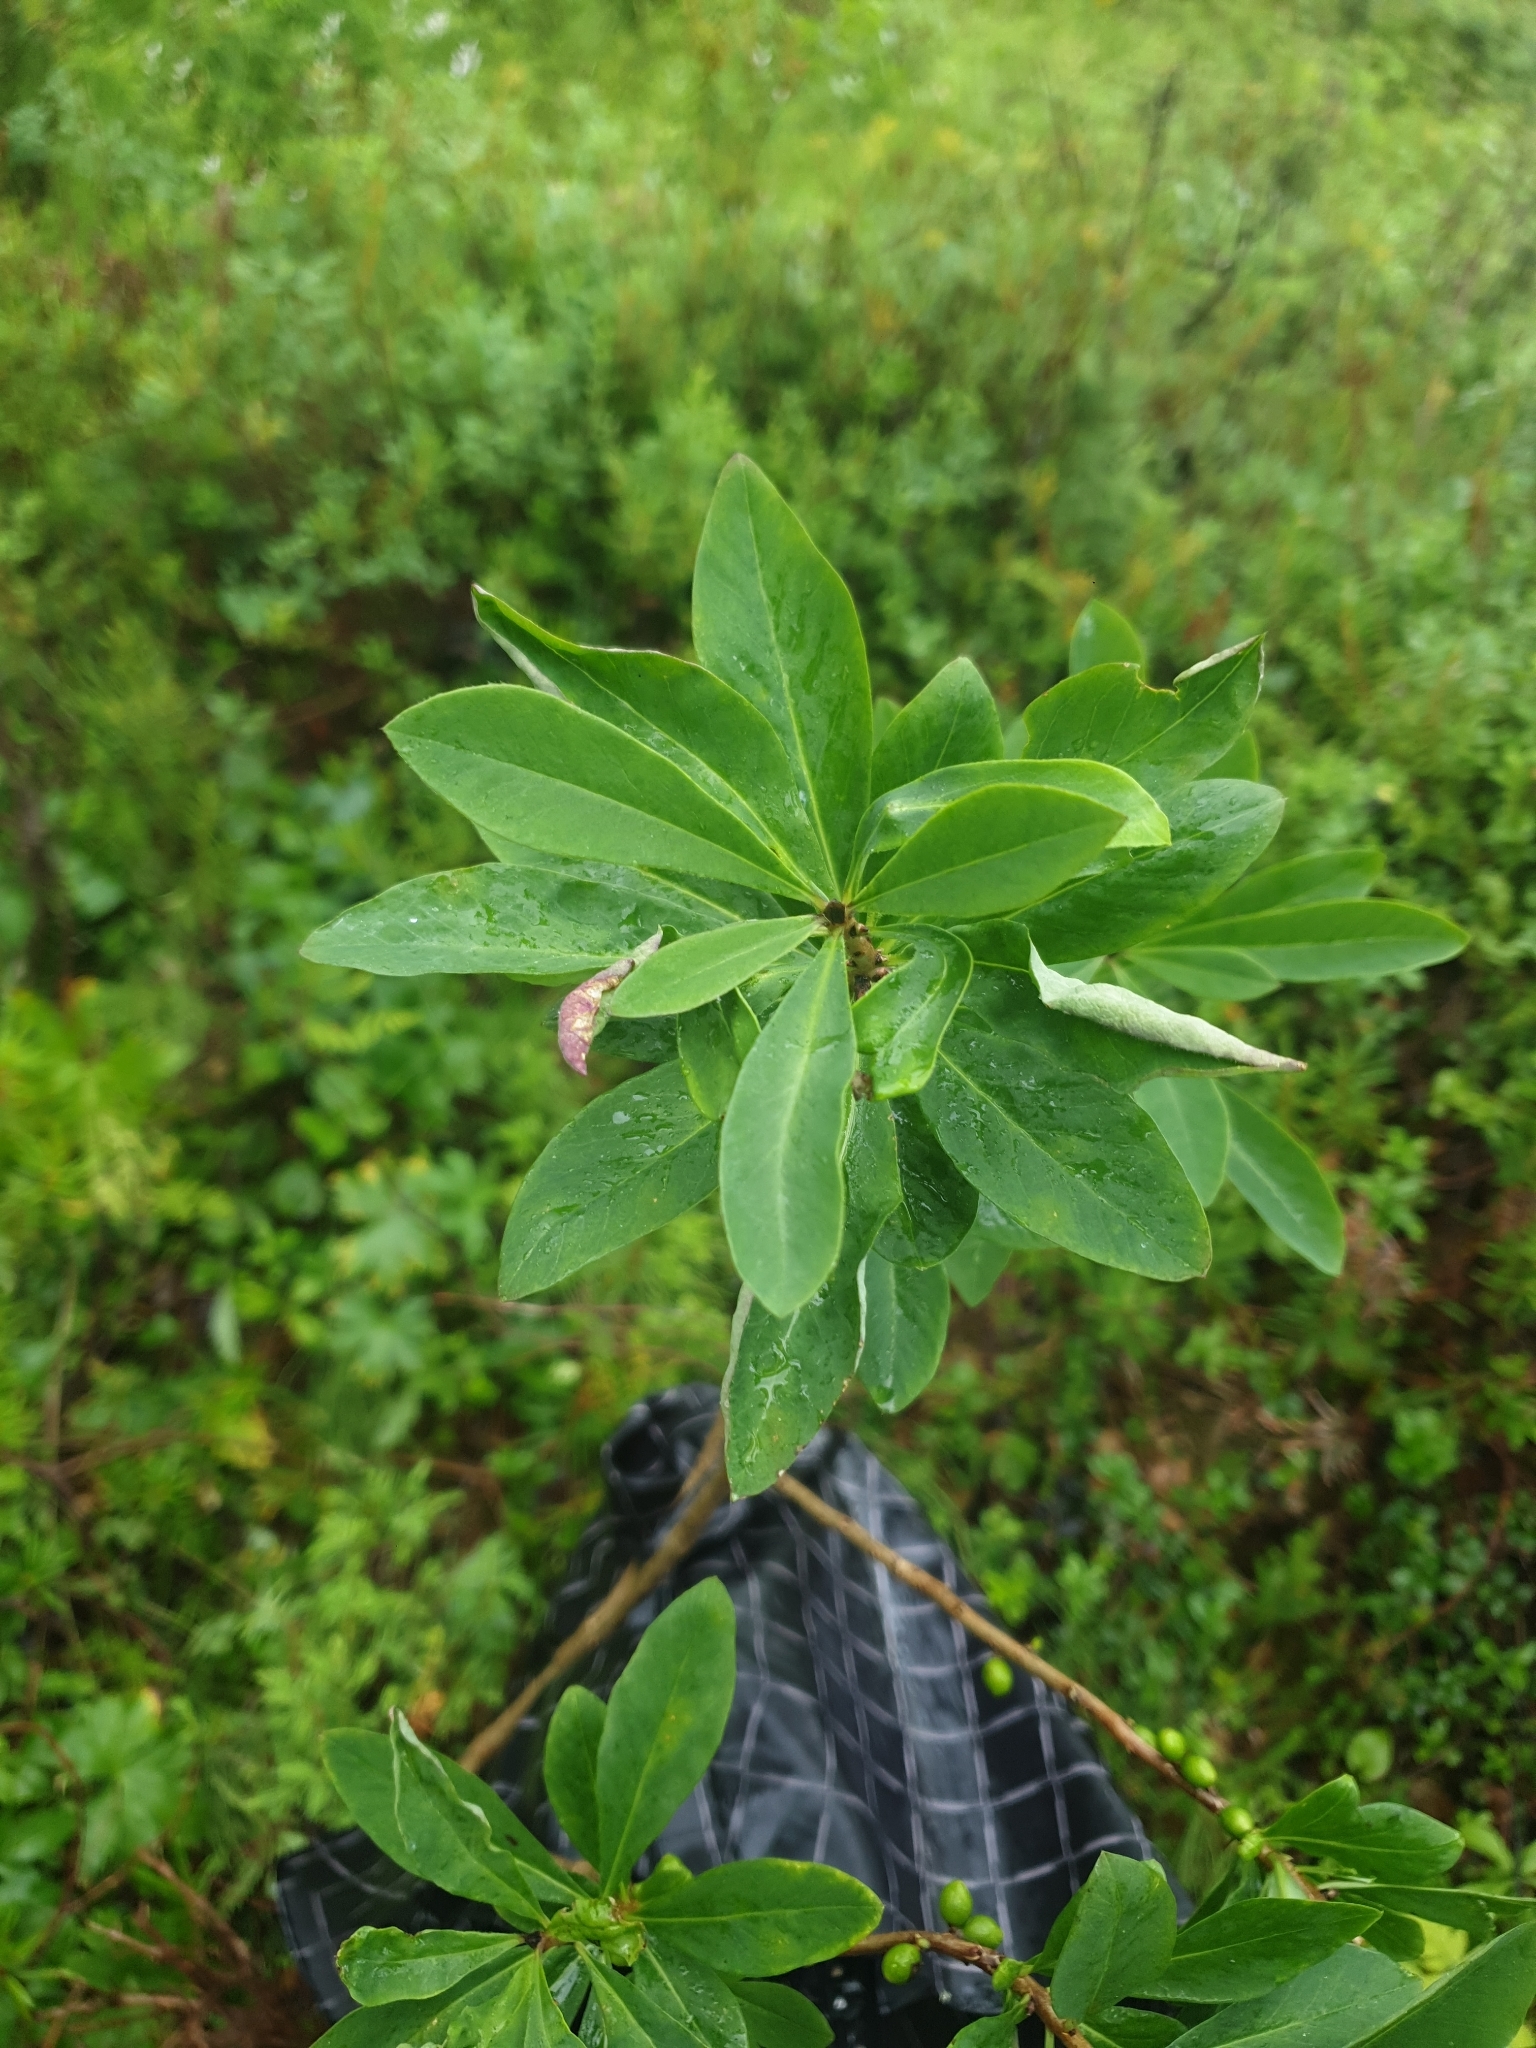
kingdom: Plantae
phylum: Tracheophyta
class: Magnoliopsida
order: Malvales
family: Thymelaeaceae
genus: Daphne
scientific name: Daphne mezereum
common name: Mezereon
